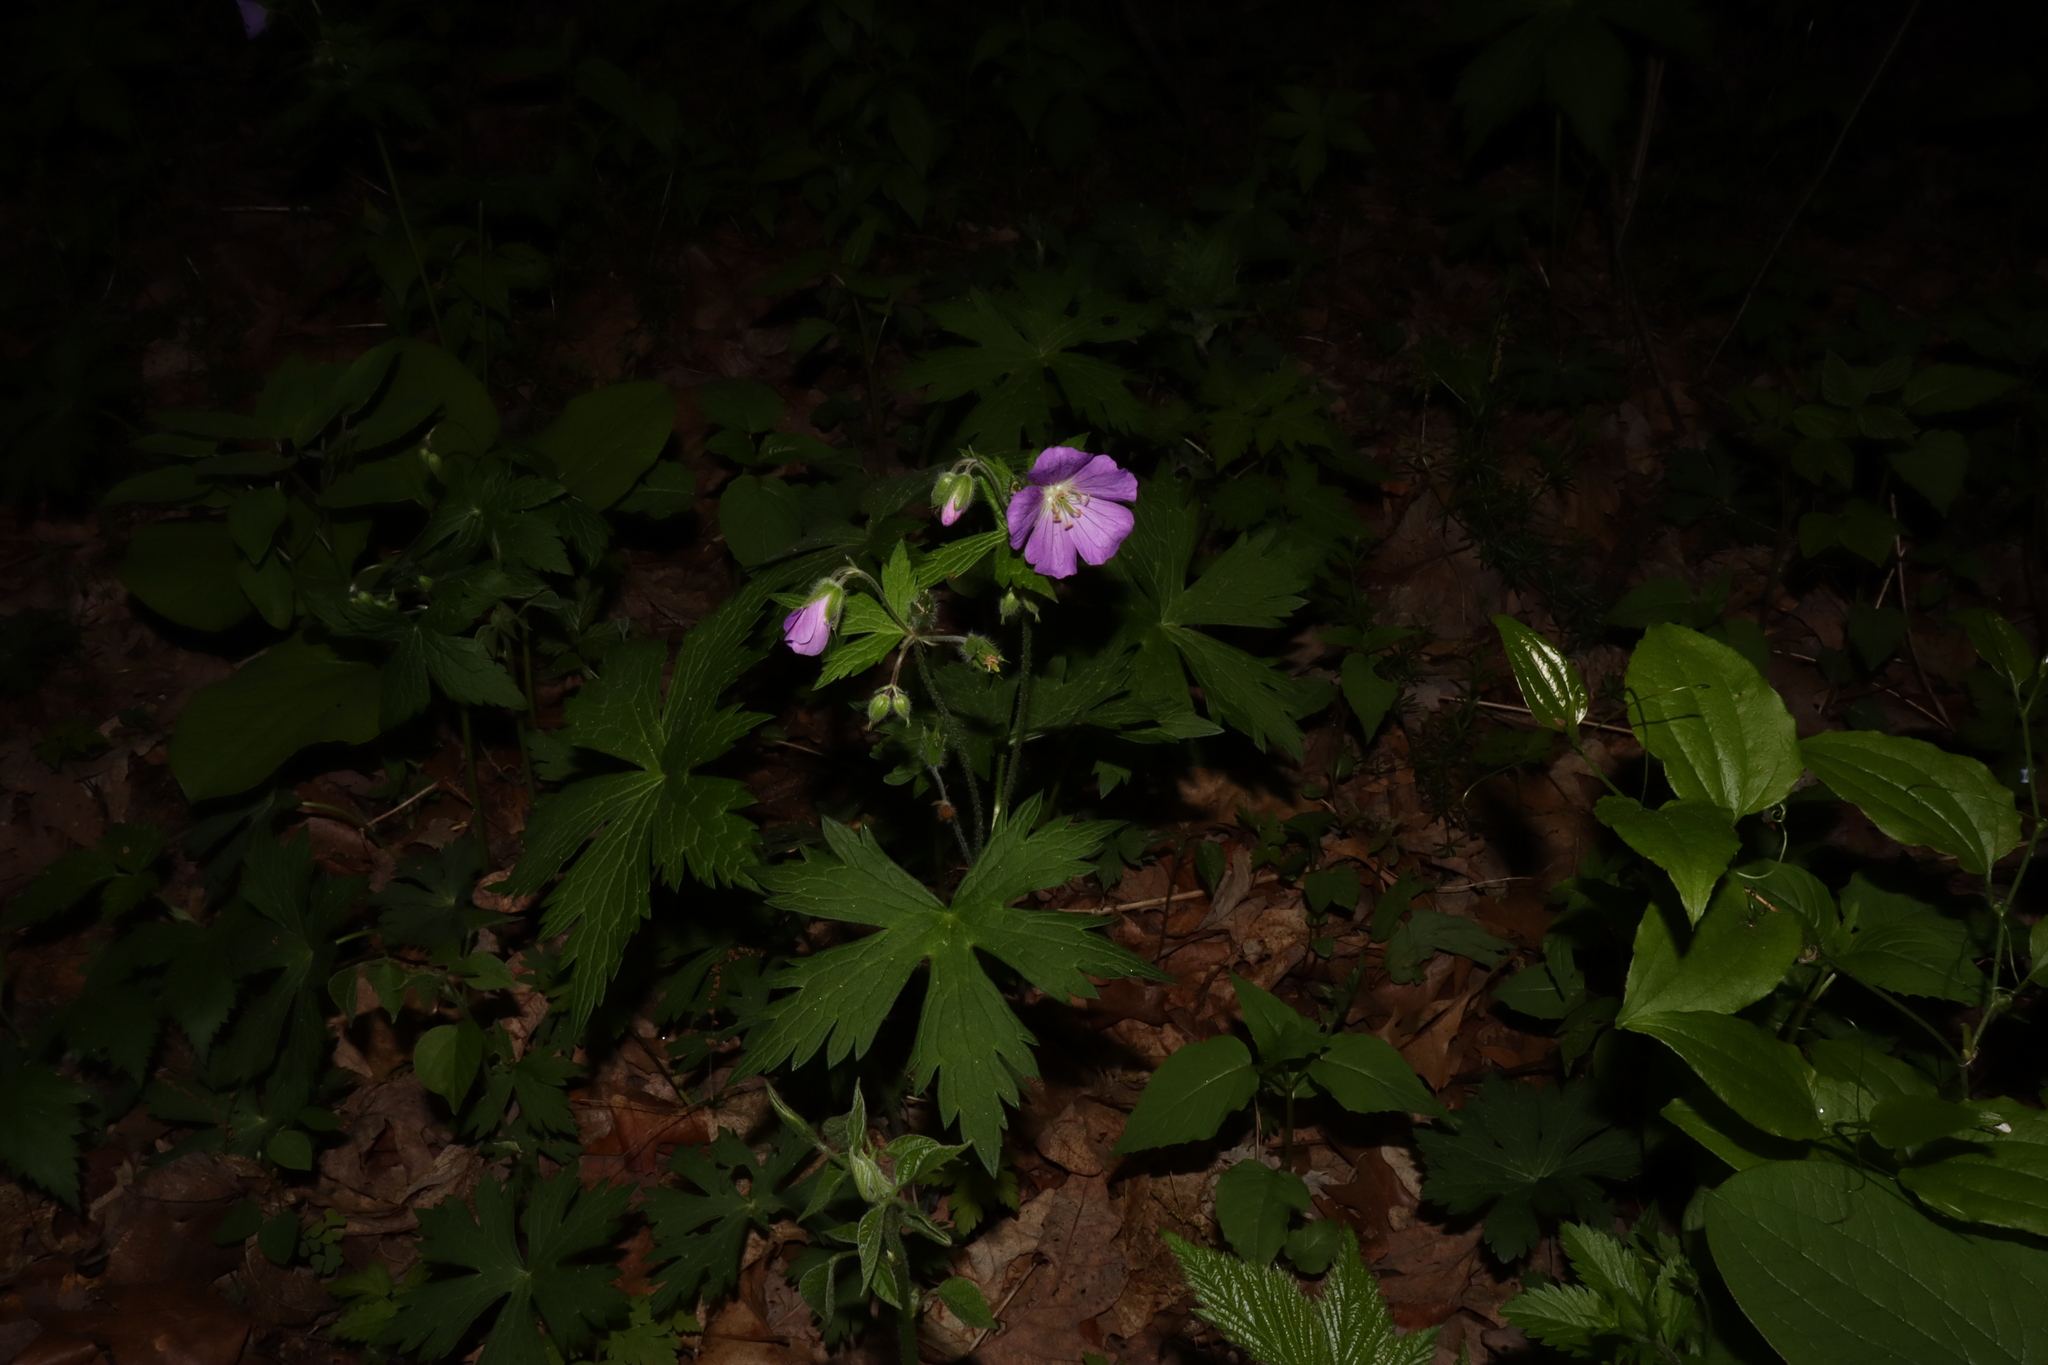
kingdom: Plantae
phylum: Tracheophyta
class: Magnoliopsida
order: Geraniales
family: Geraniaceae
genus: Geranium
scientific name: Geranium maculatum
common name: Spotted geranium
